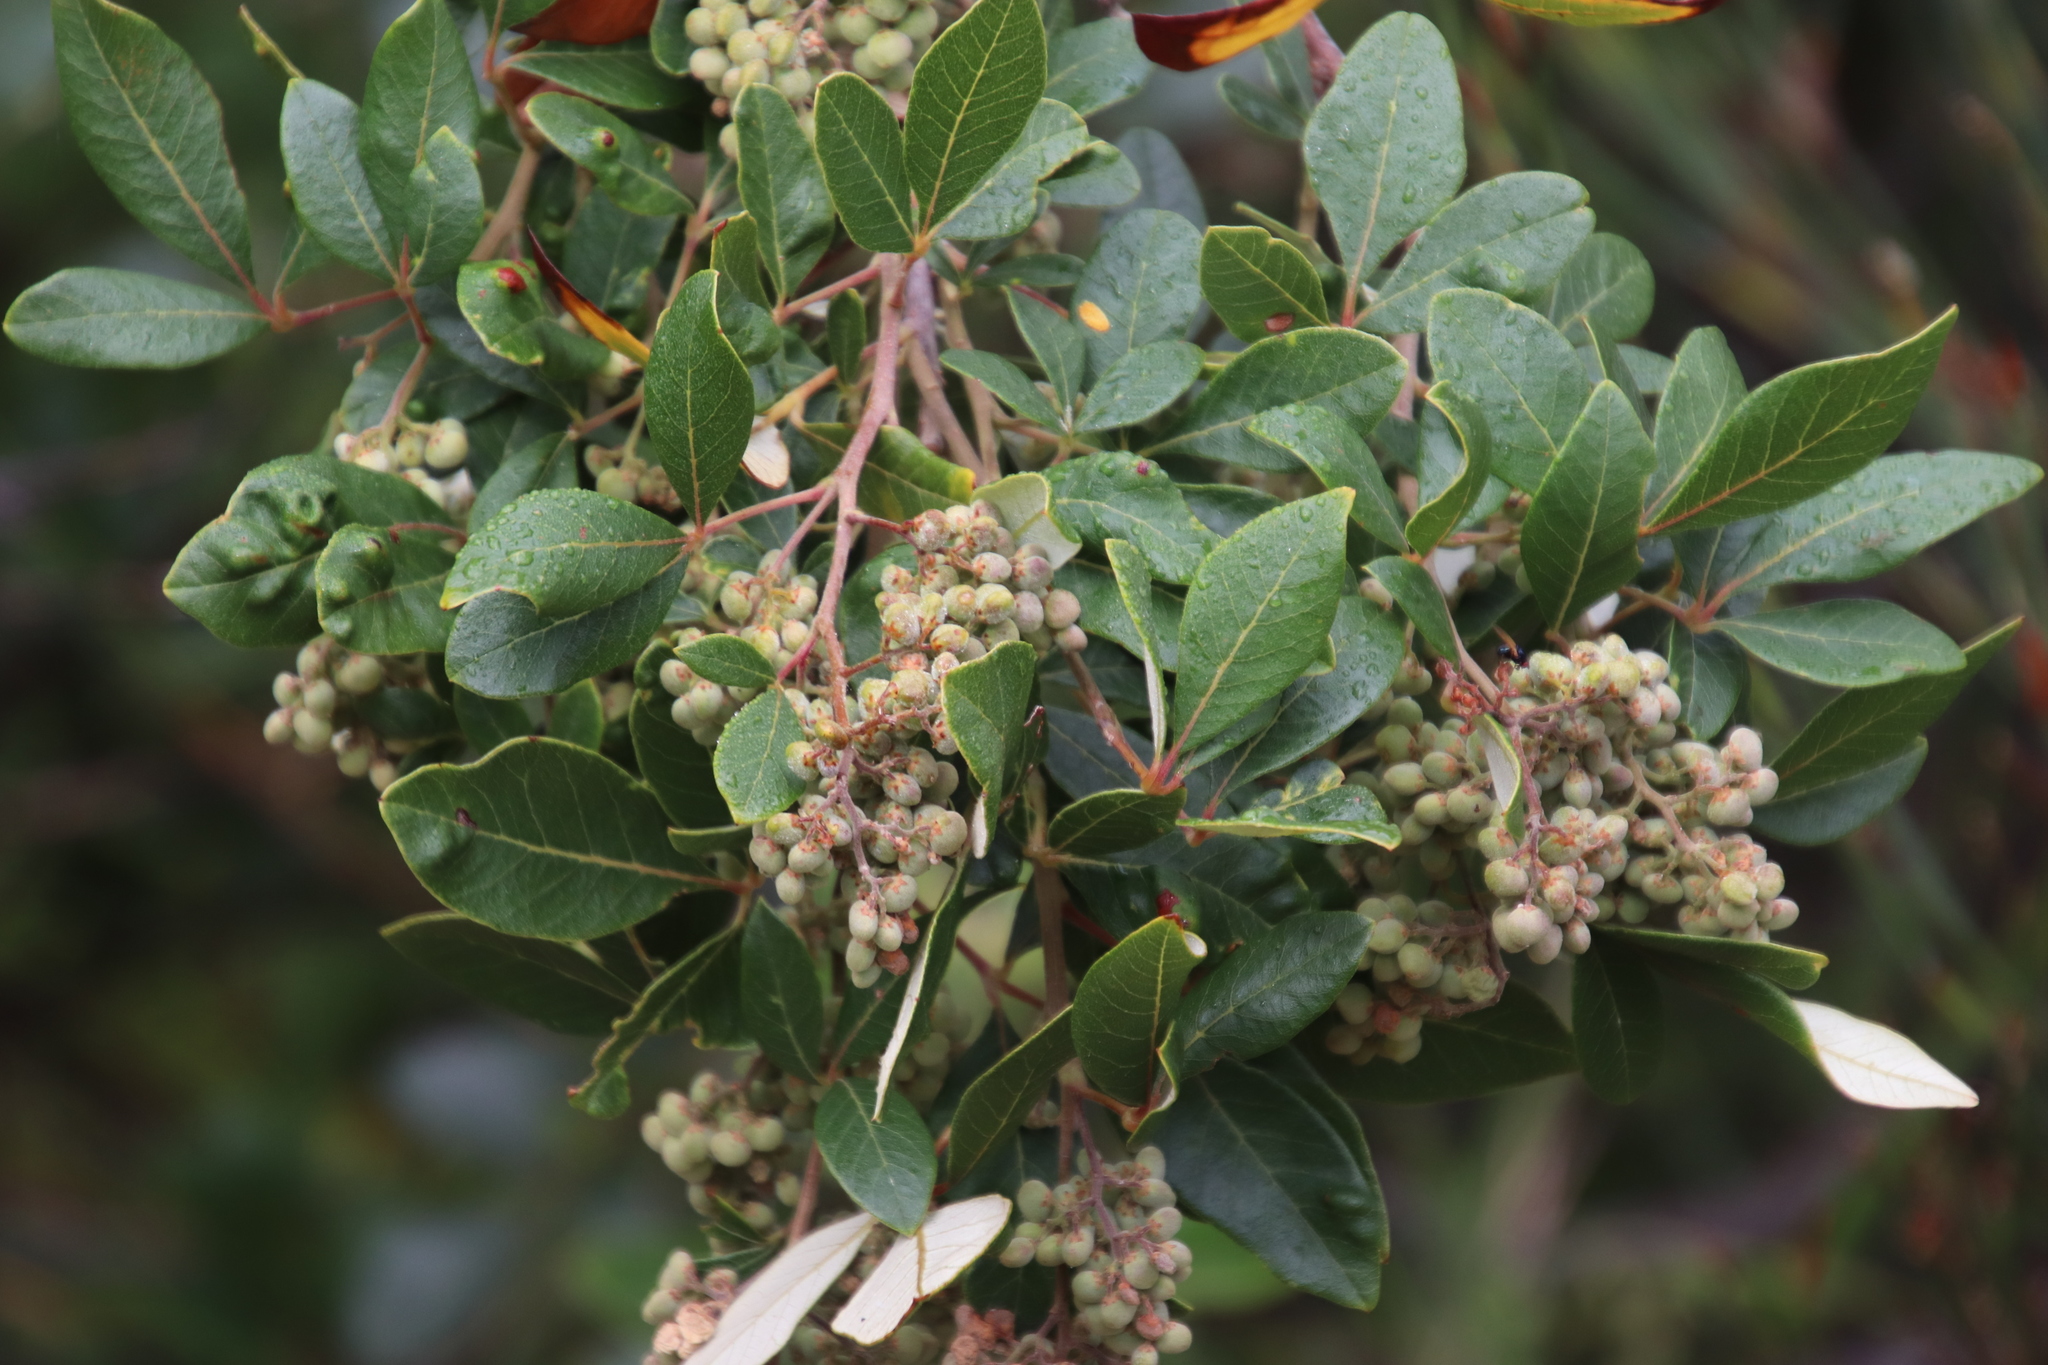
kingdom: Plantae
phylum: Tracheophyta
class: Magnoliopsida
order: Sapindales
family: Anacardiaceae
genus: Searsia
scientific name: Searsia tomentosa
